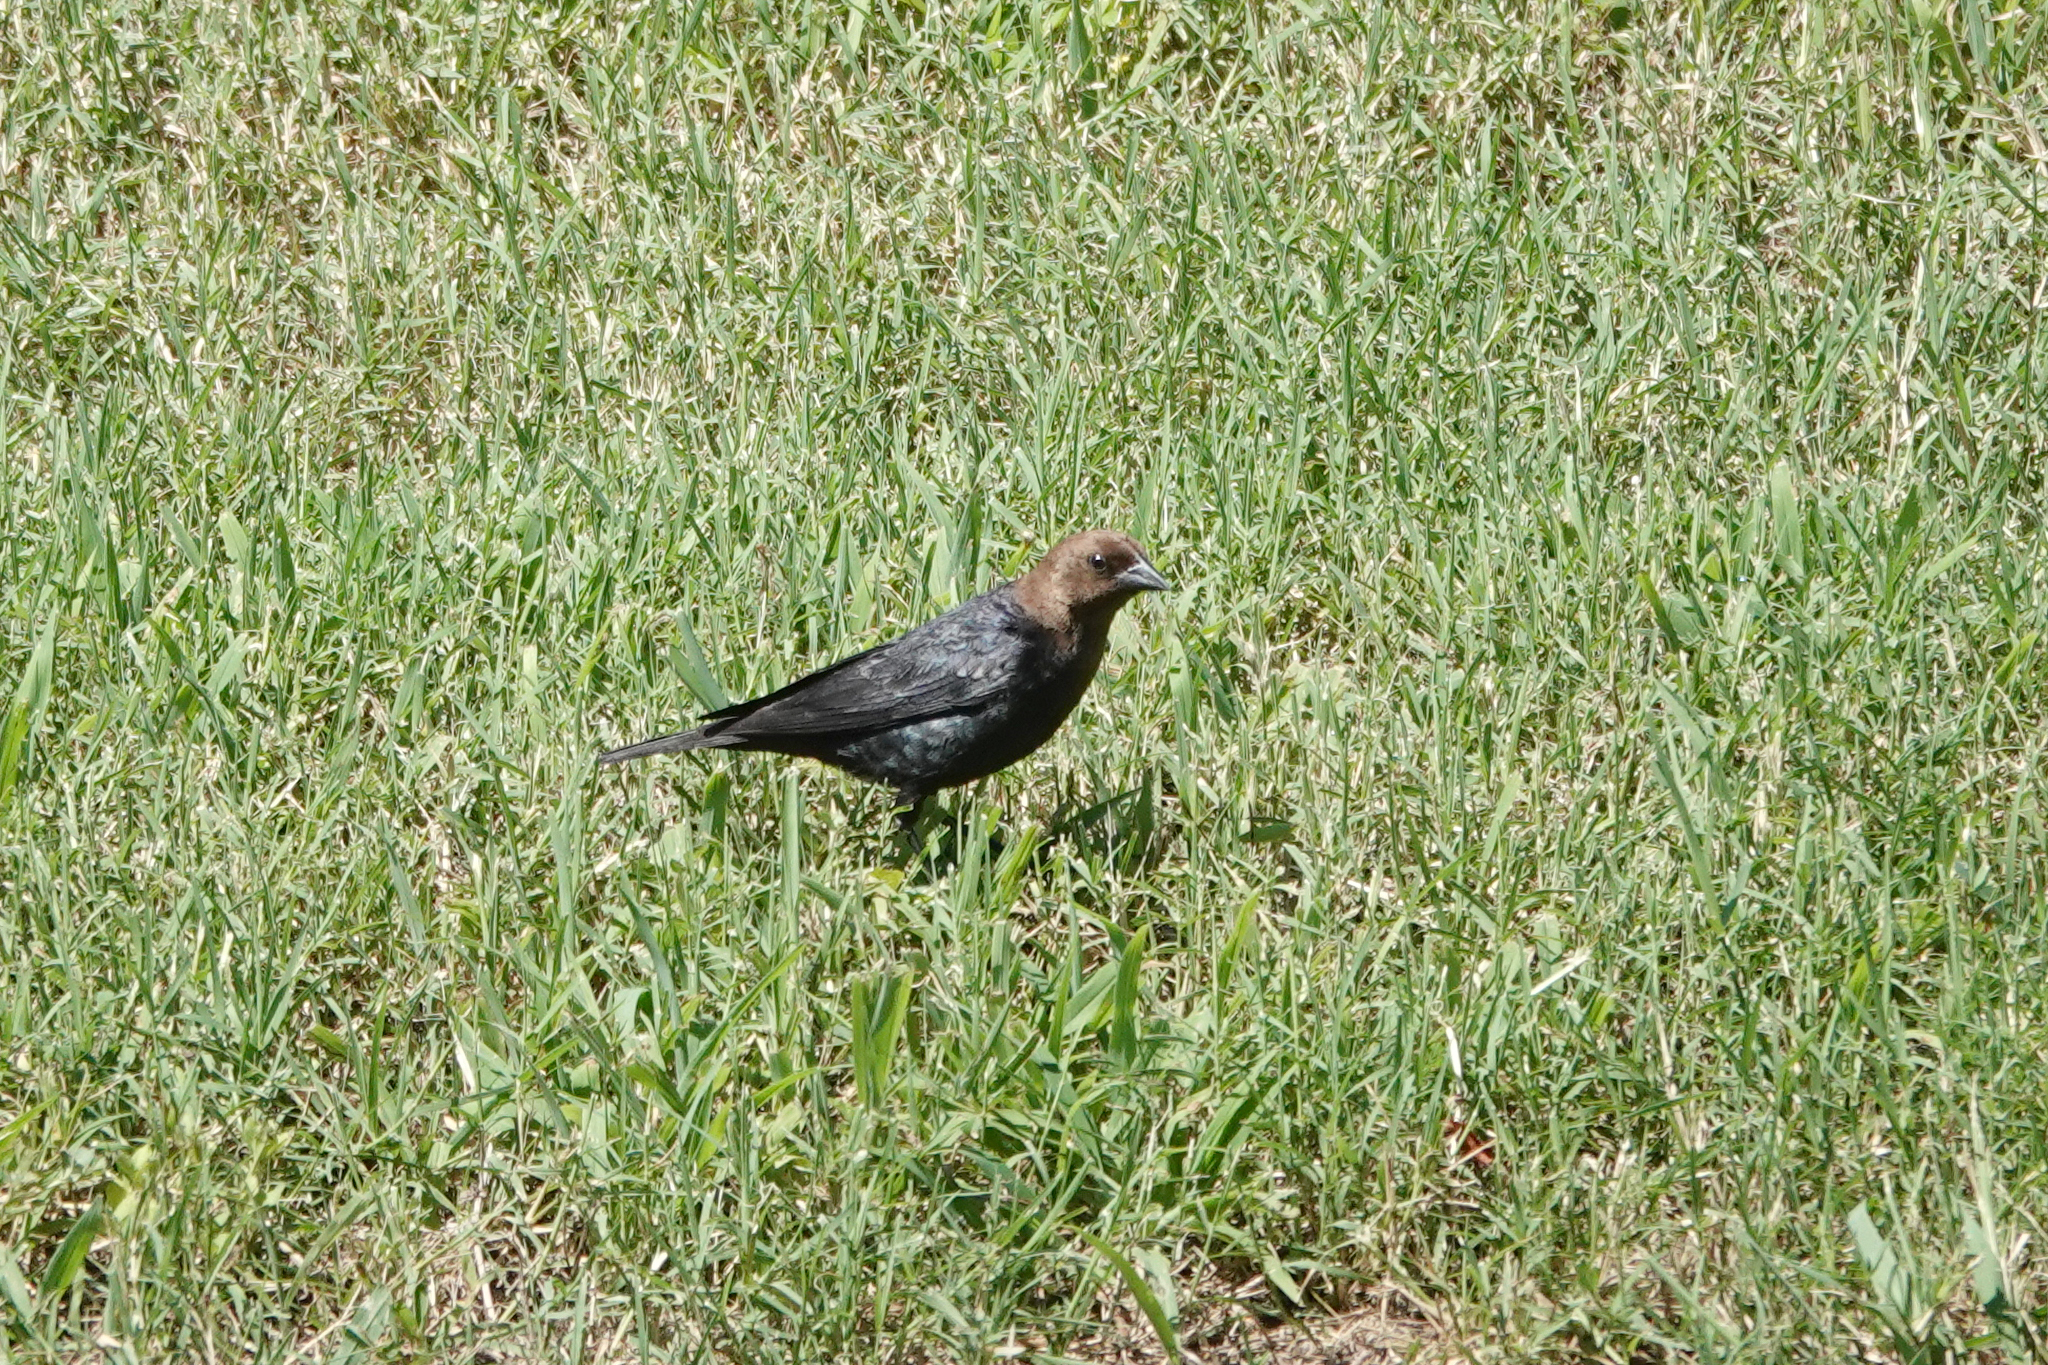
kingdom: Animalia
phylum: Chordata
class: Aves
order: Passeriformes
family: Icteridae
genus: Molothrus
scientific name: Molothrus ater
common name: Brown-headed cowbird
